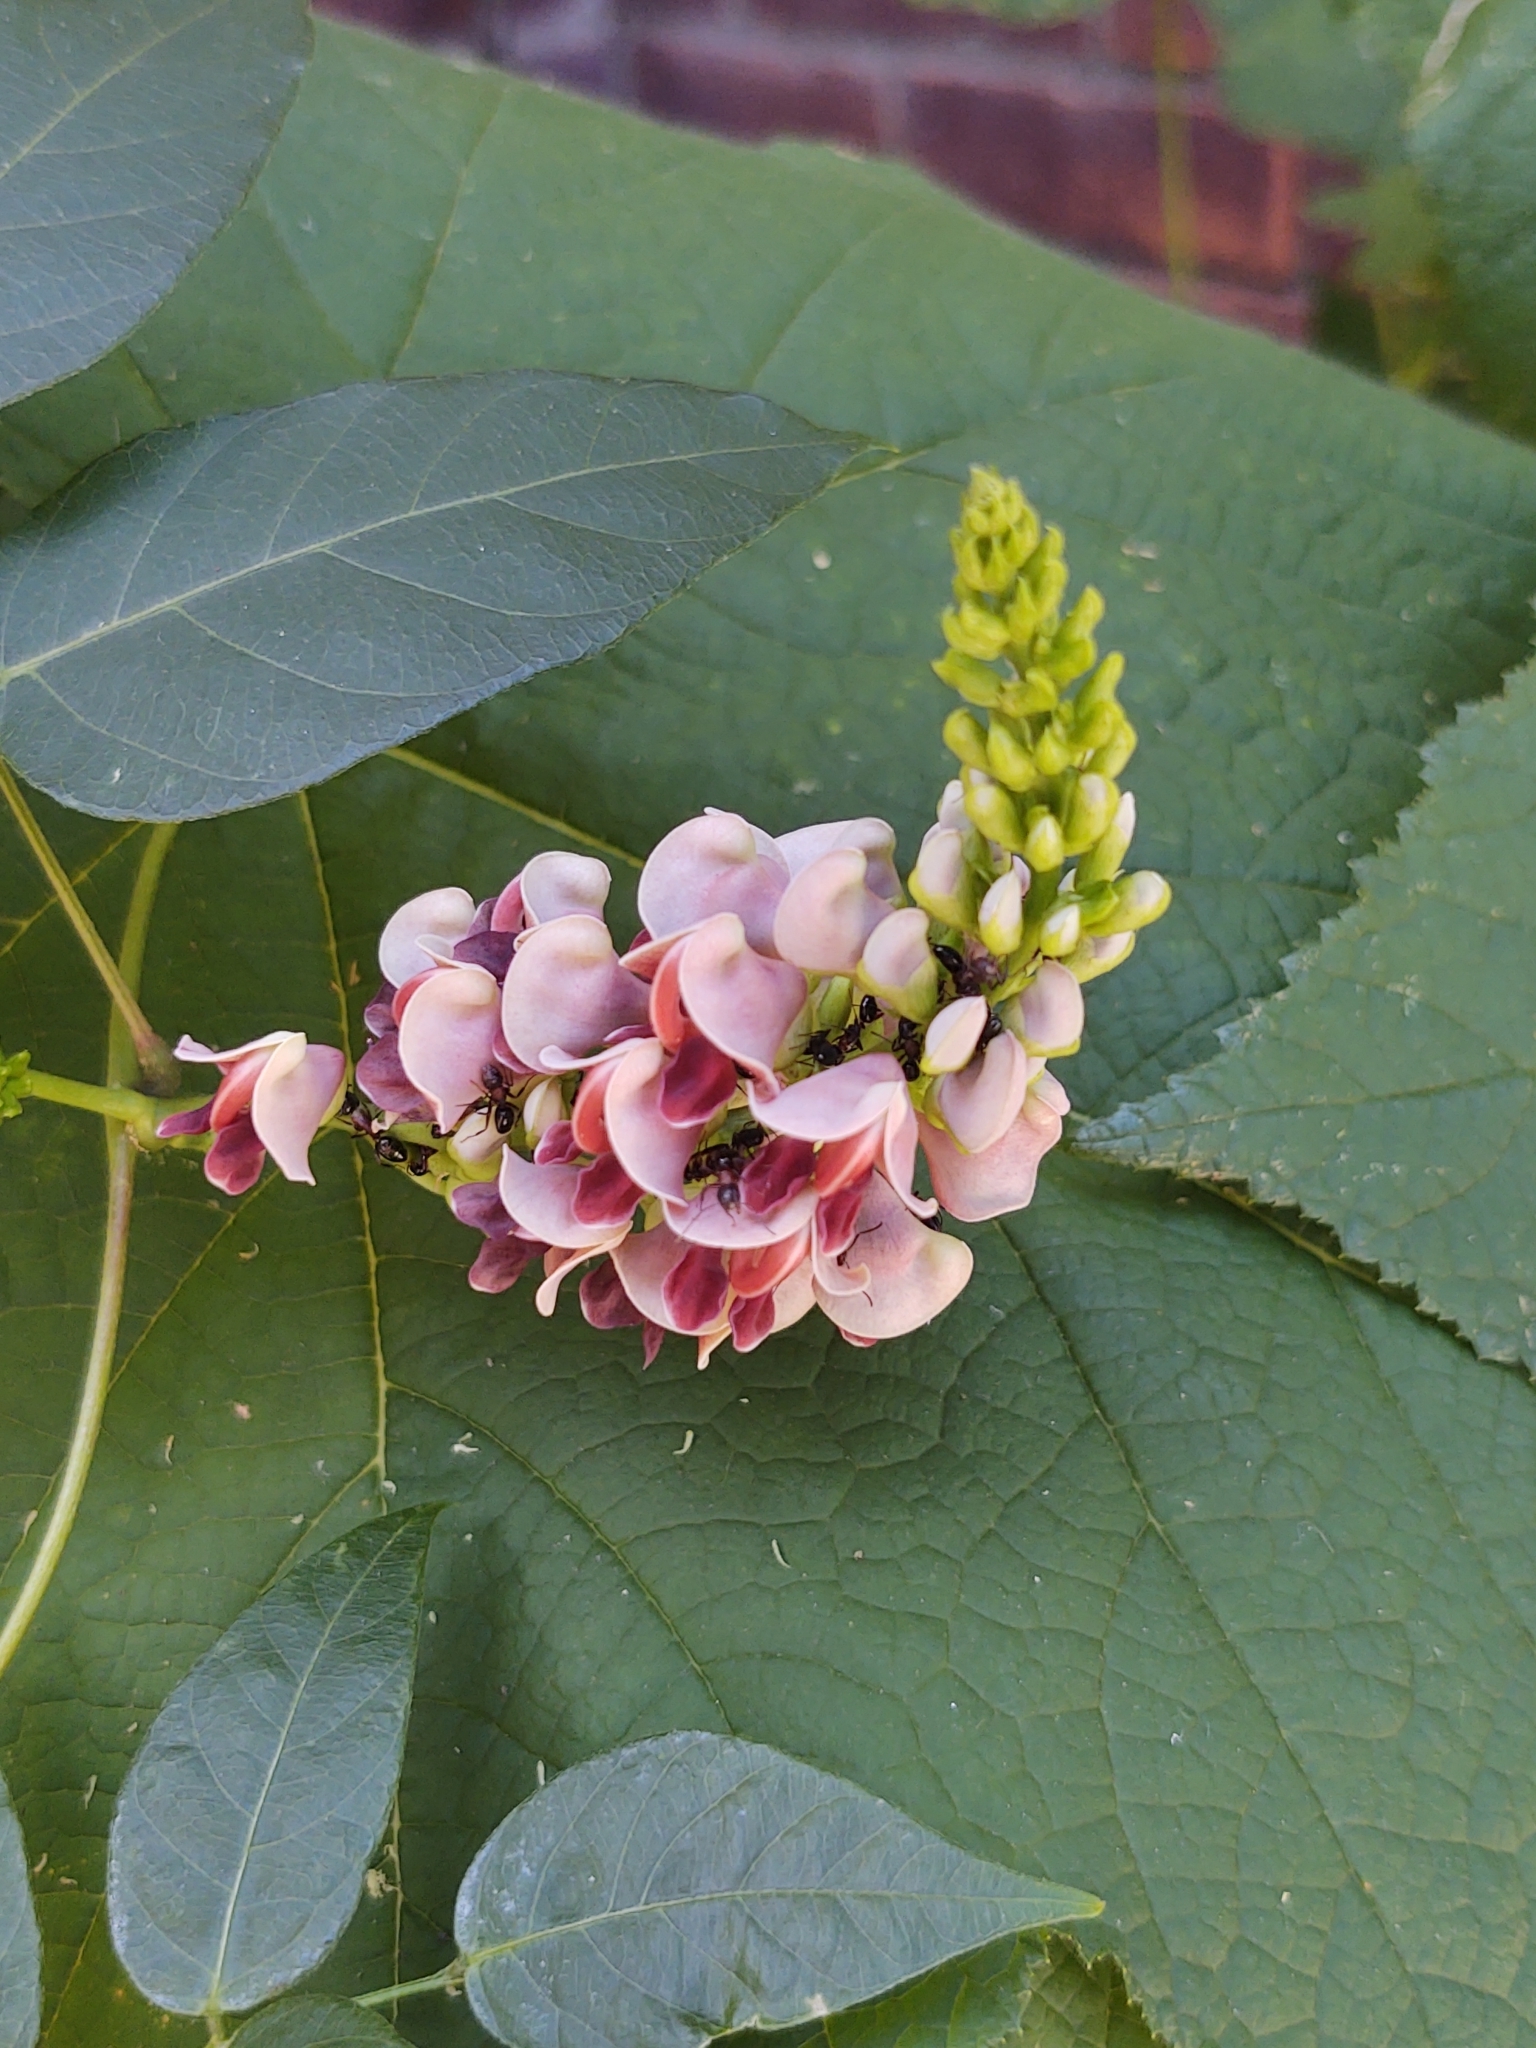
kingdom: Plantae
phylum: Tracheophyta
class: Magnoliopsida
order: Fabales
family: Fabaceae
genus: Apios
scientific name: Apios americana
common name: American potato-bean
